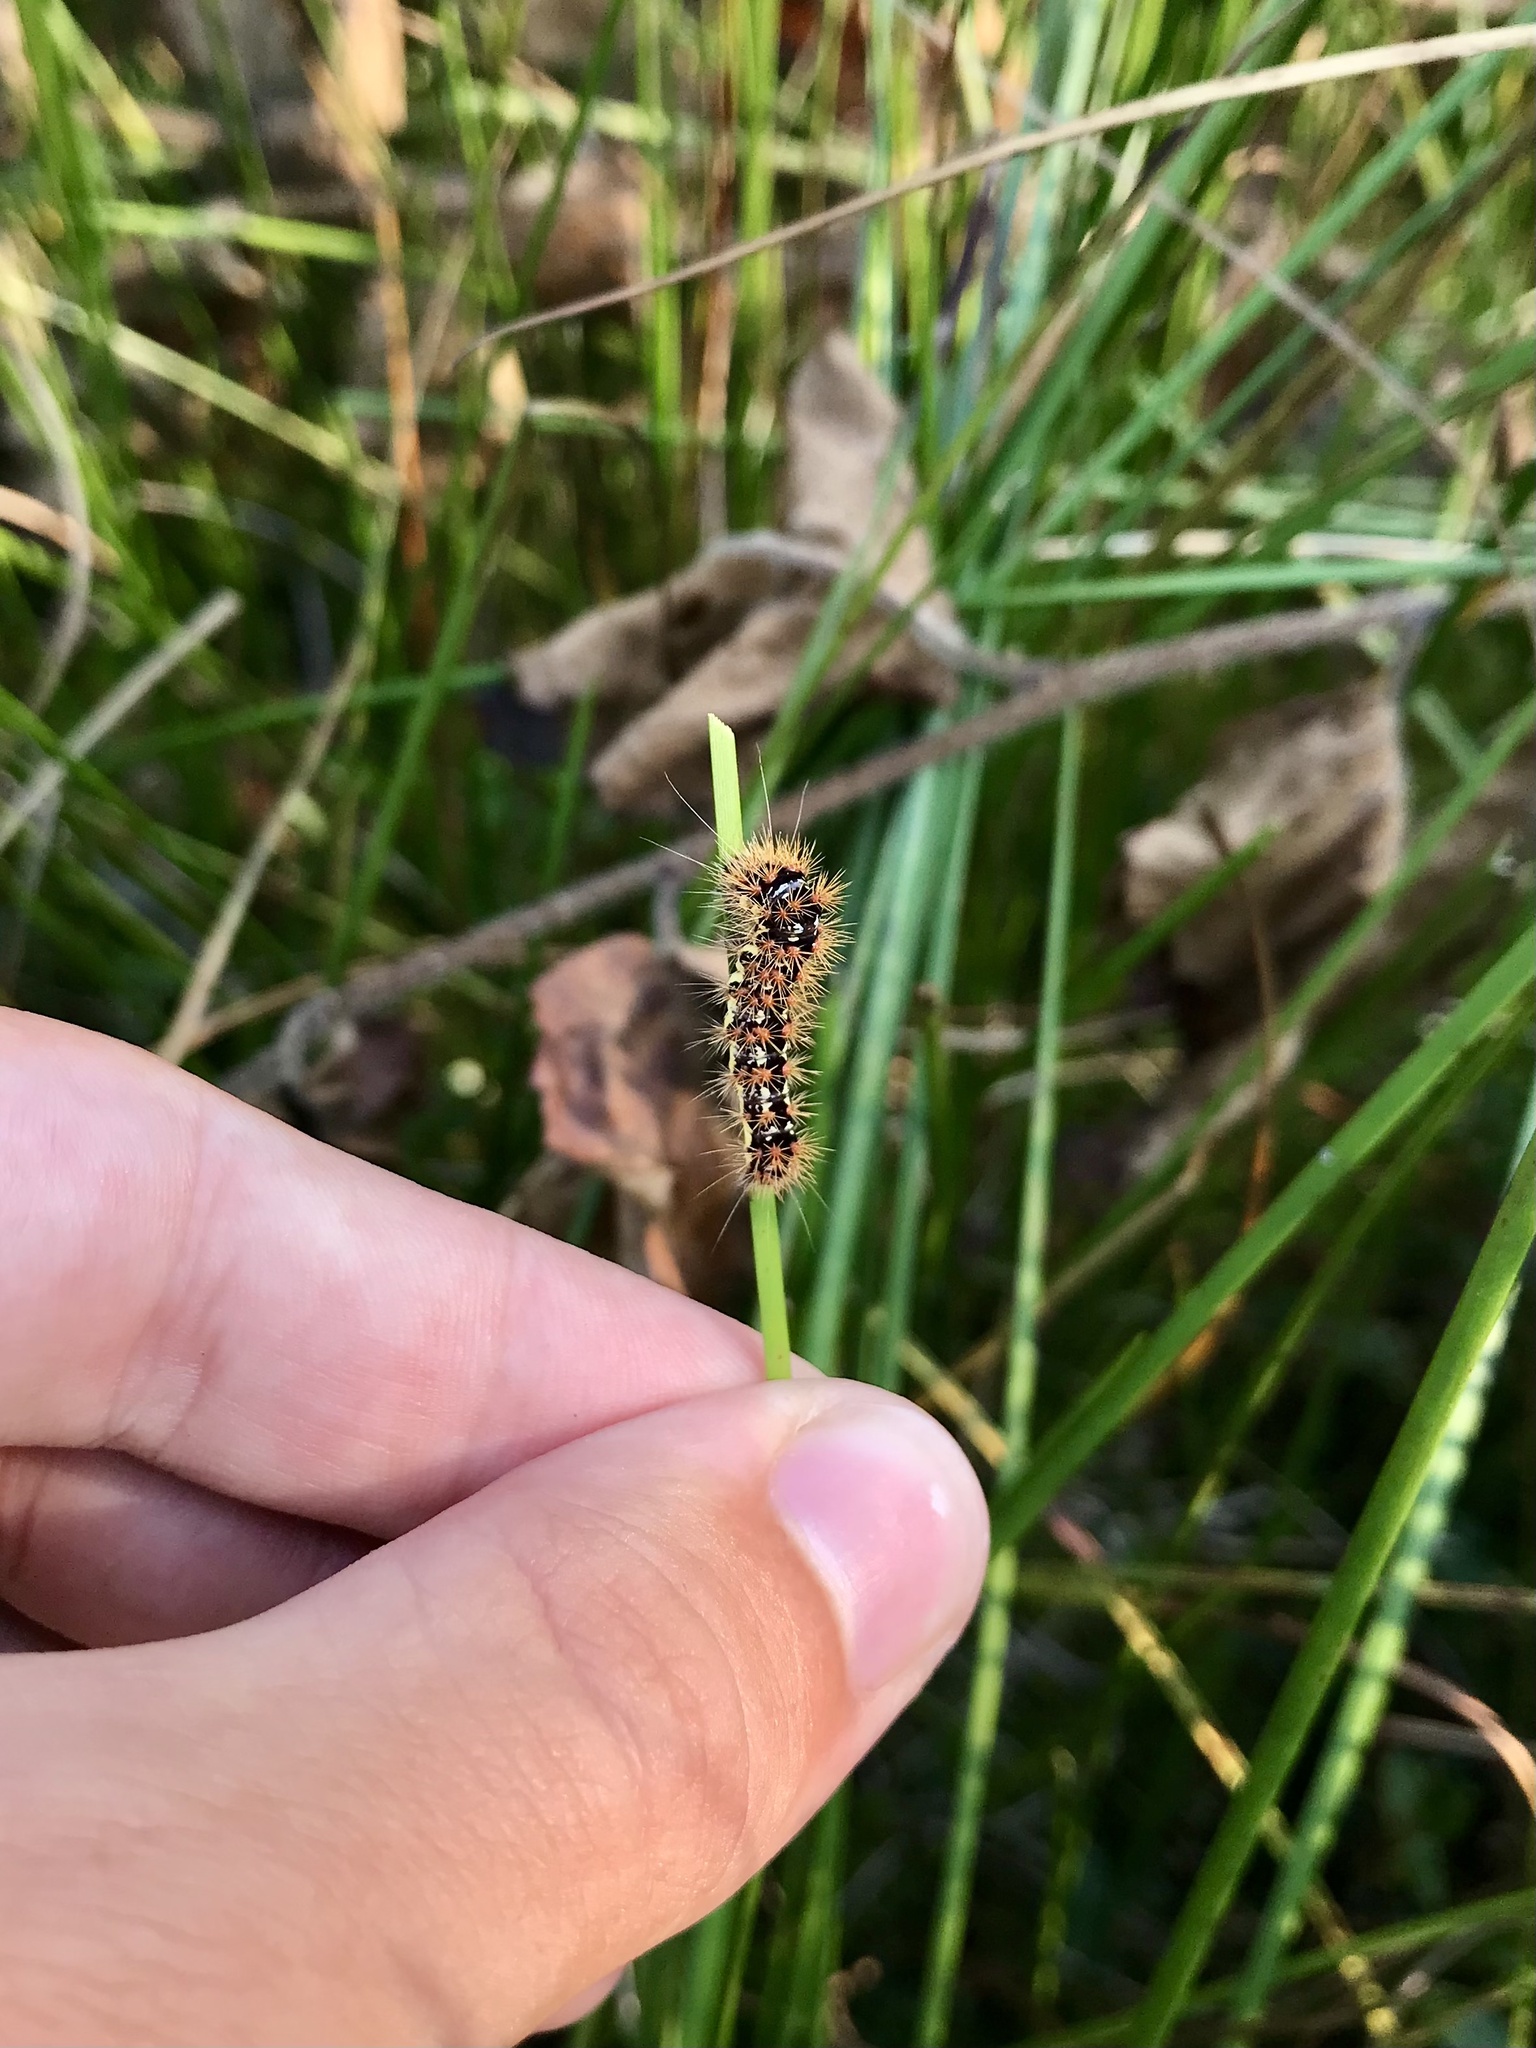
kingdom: Animalia
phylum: Arthropoda
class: Insecta
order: Lepidoptera
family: Noctuidae
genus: Acronicta
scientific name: Acronicta oblinita
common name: Smeared dagger
